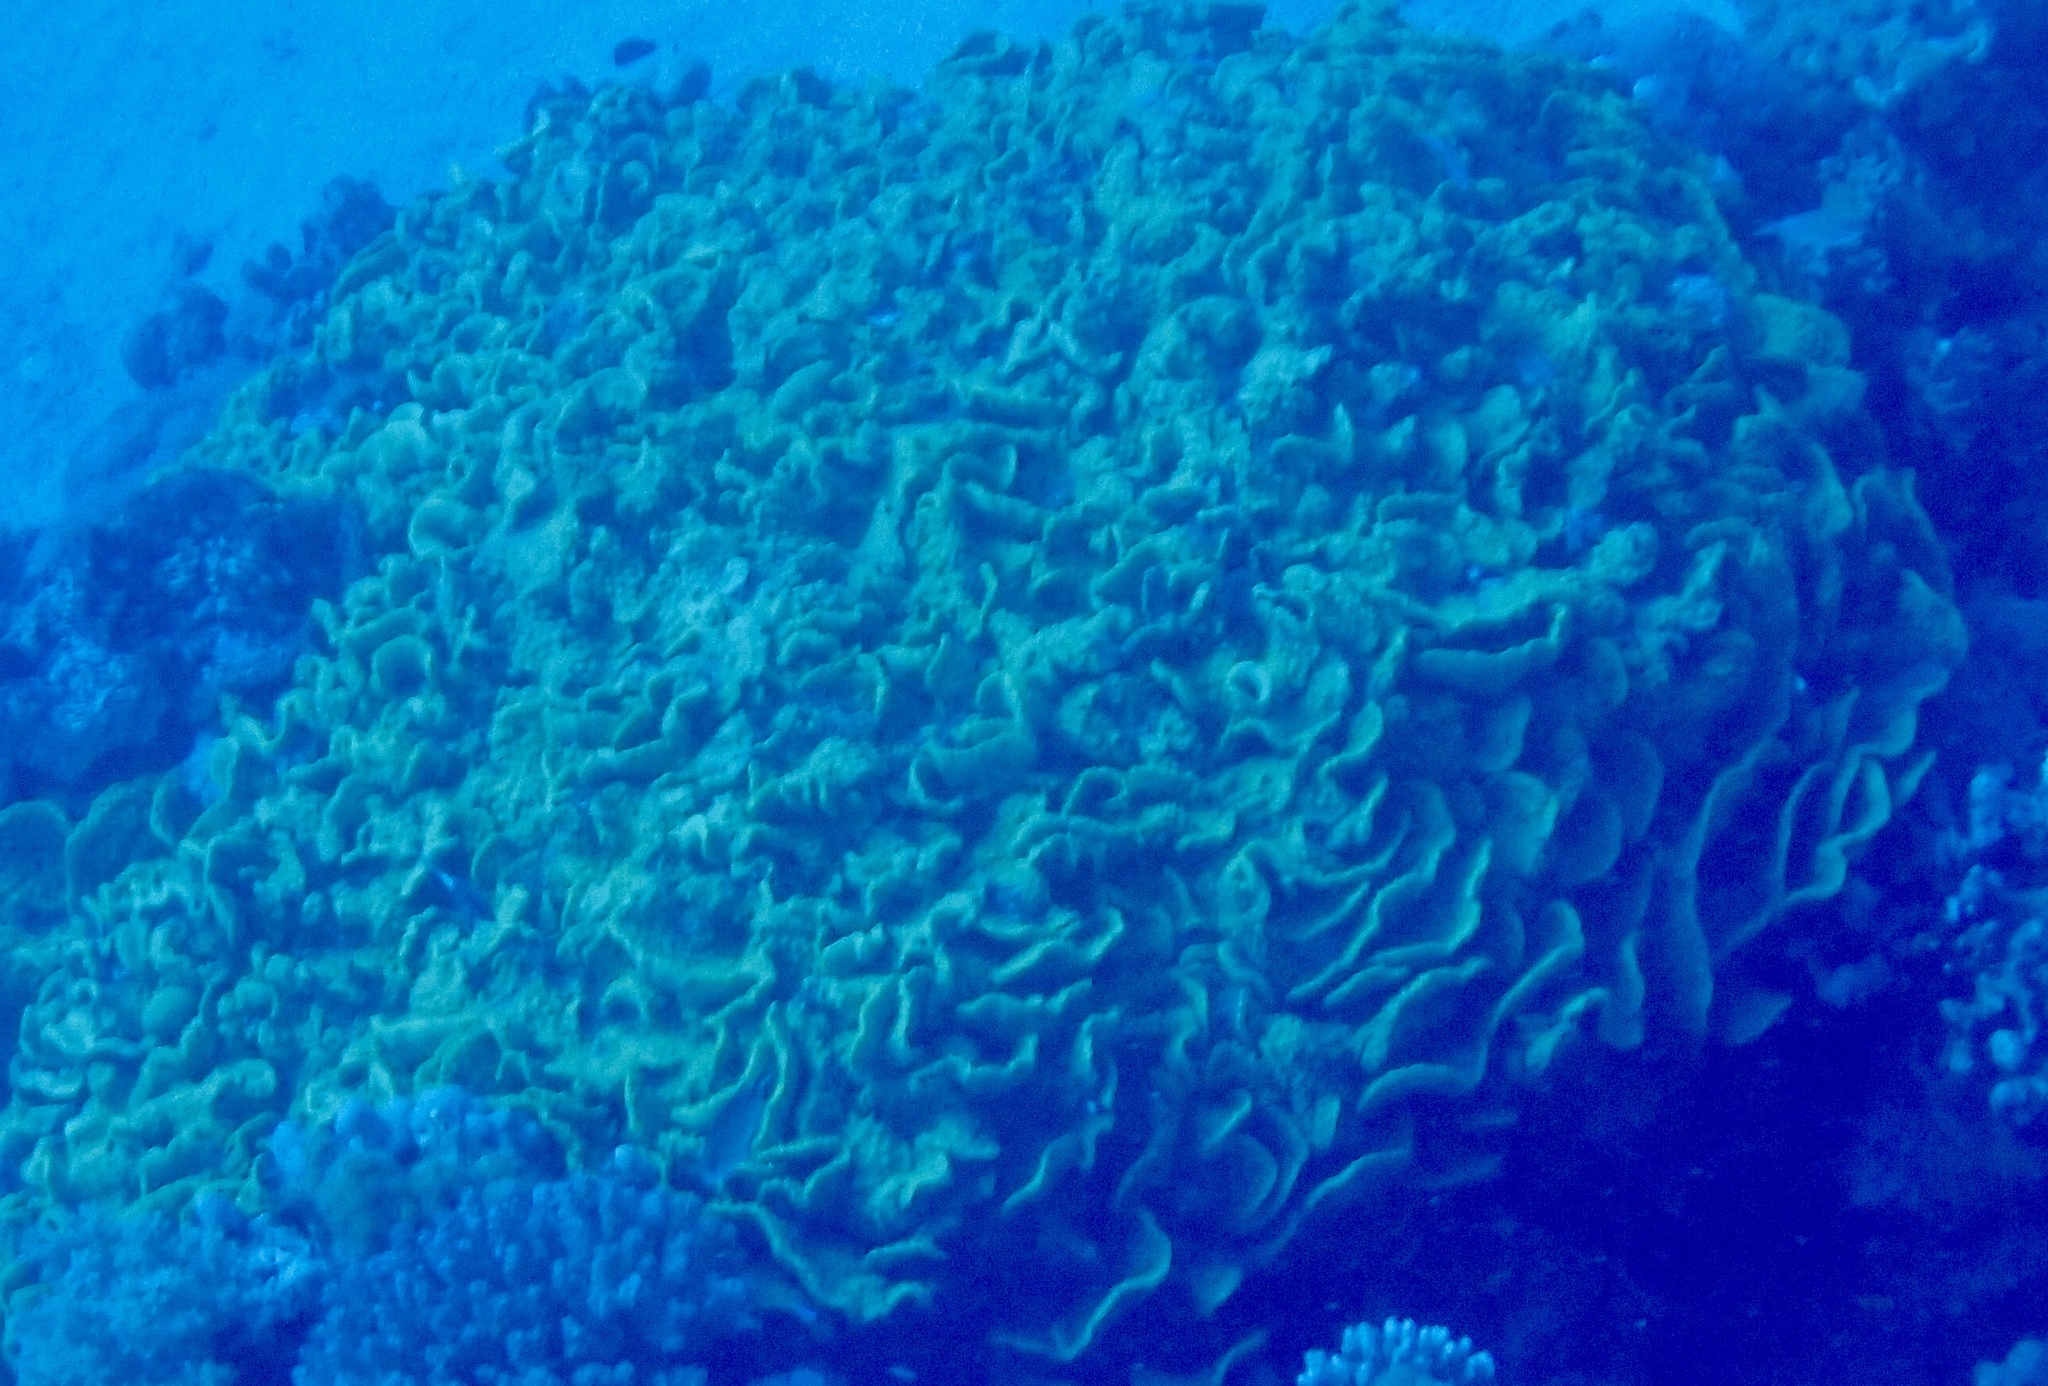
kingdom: Animalia
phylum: Cnidaria
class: Anthozoa
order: Scleractinia
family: Dendrophylliidae
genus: Turbinaria
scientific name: Turbinaria reniformis
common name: Disc coral
